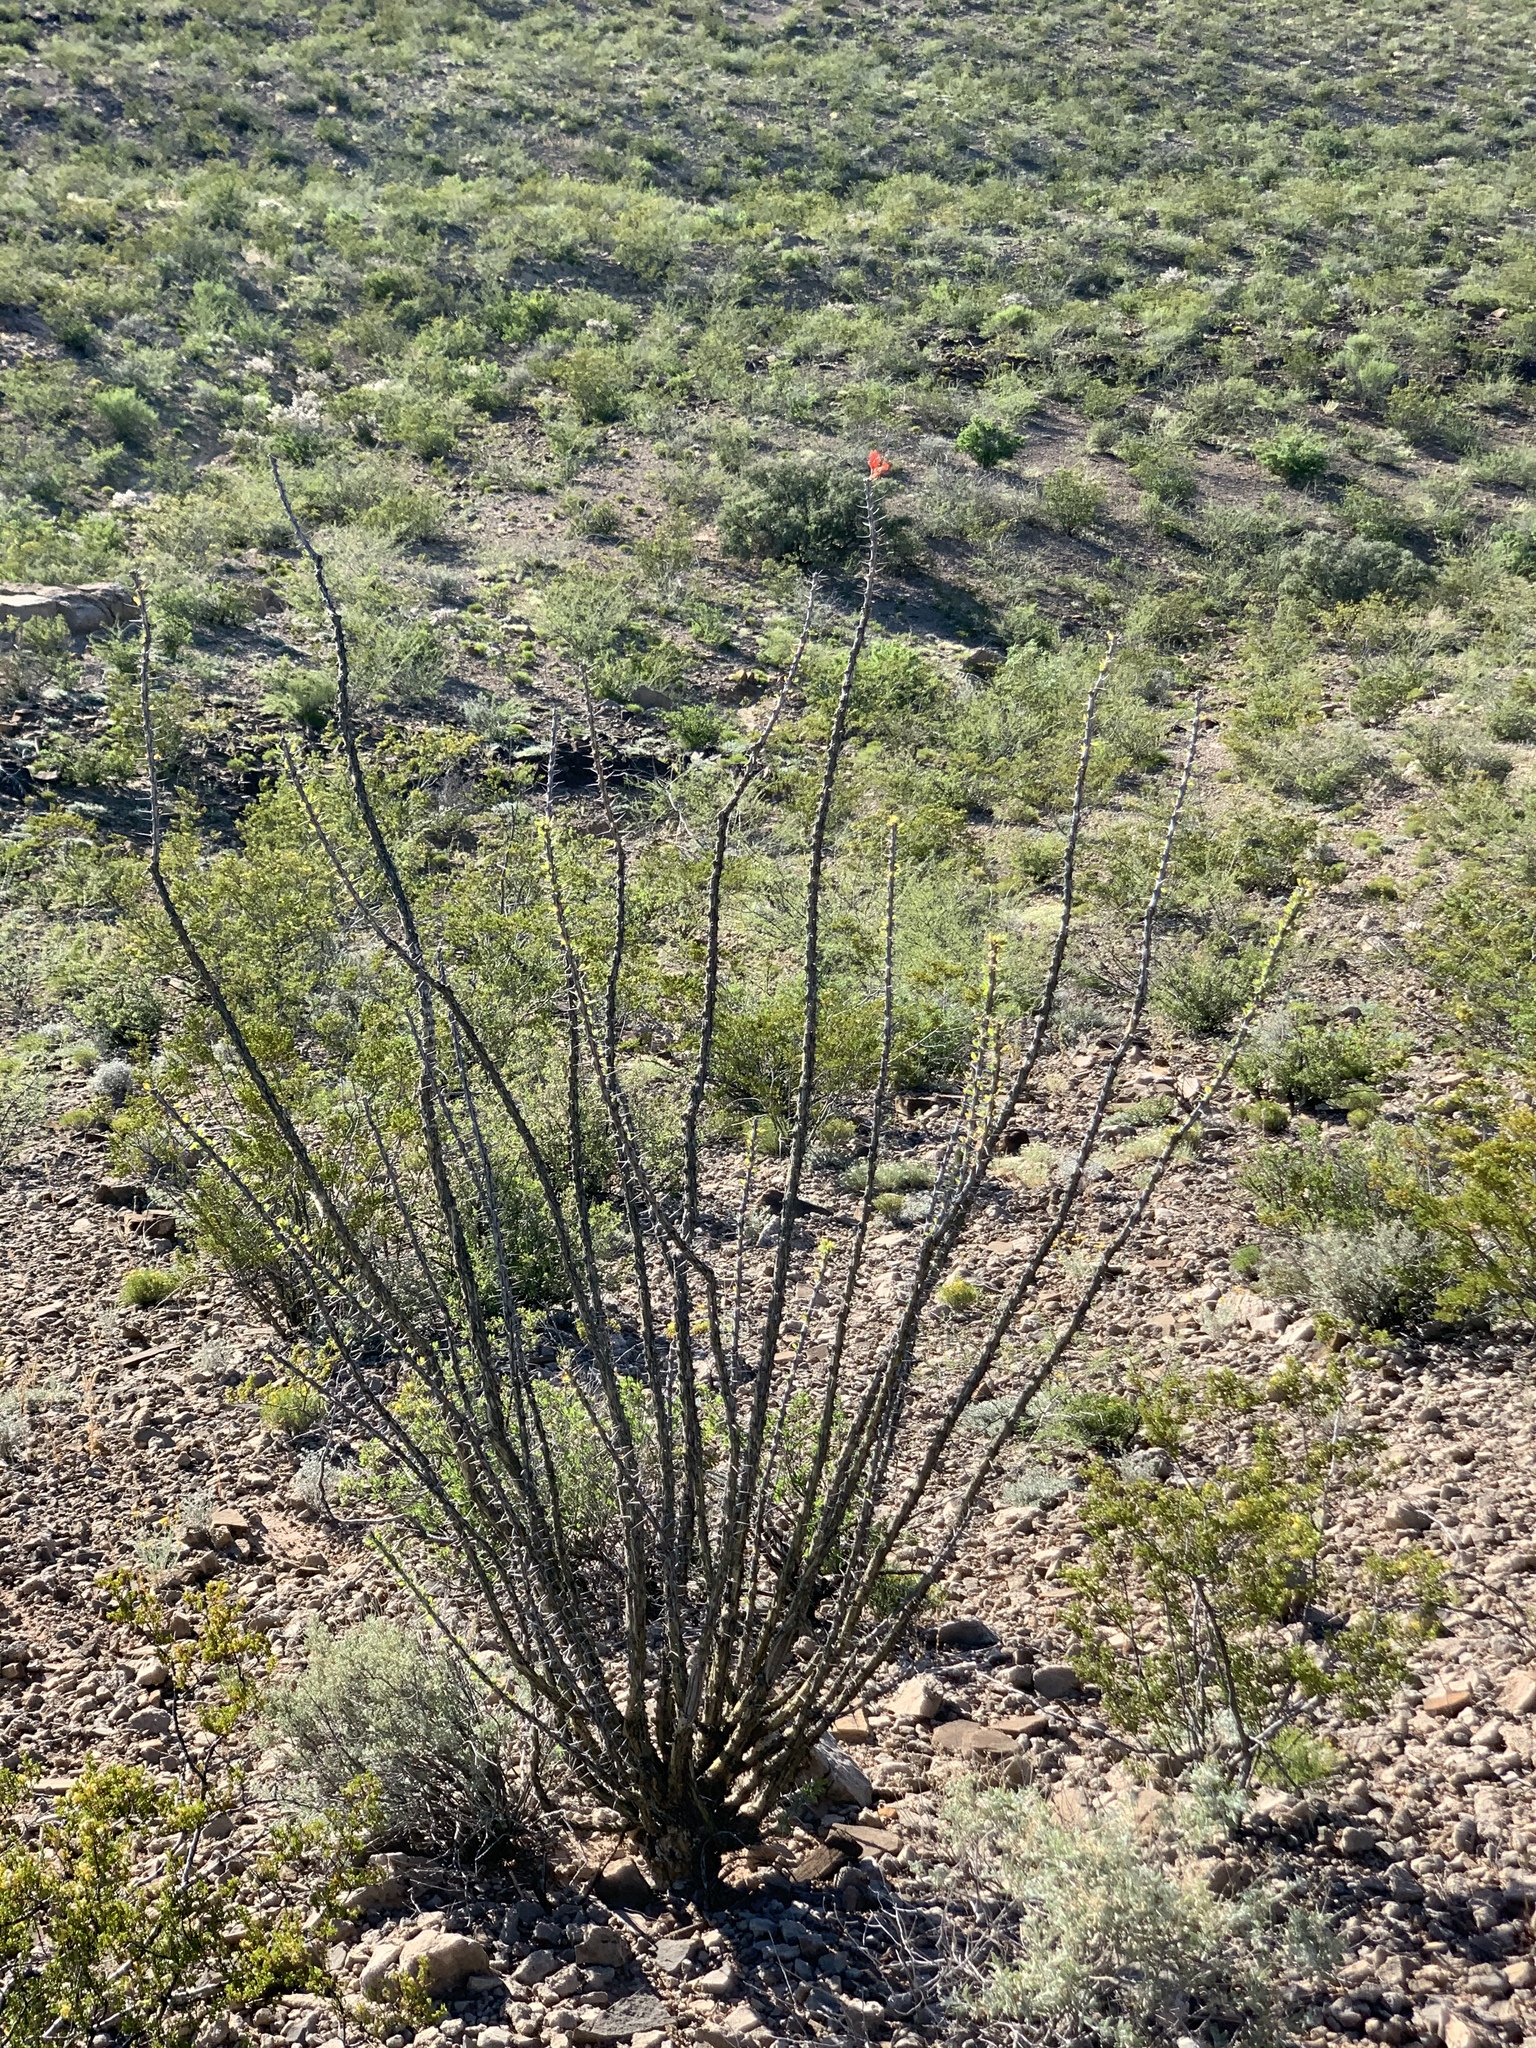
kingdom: Plantae
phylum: Tracheophyta
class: Magnoliopsida
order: Ericales
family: Fouquieriaceae
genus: Fouquieria
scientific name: Fouquieria splendens
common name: Vine-cactus
